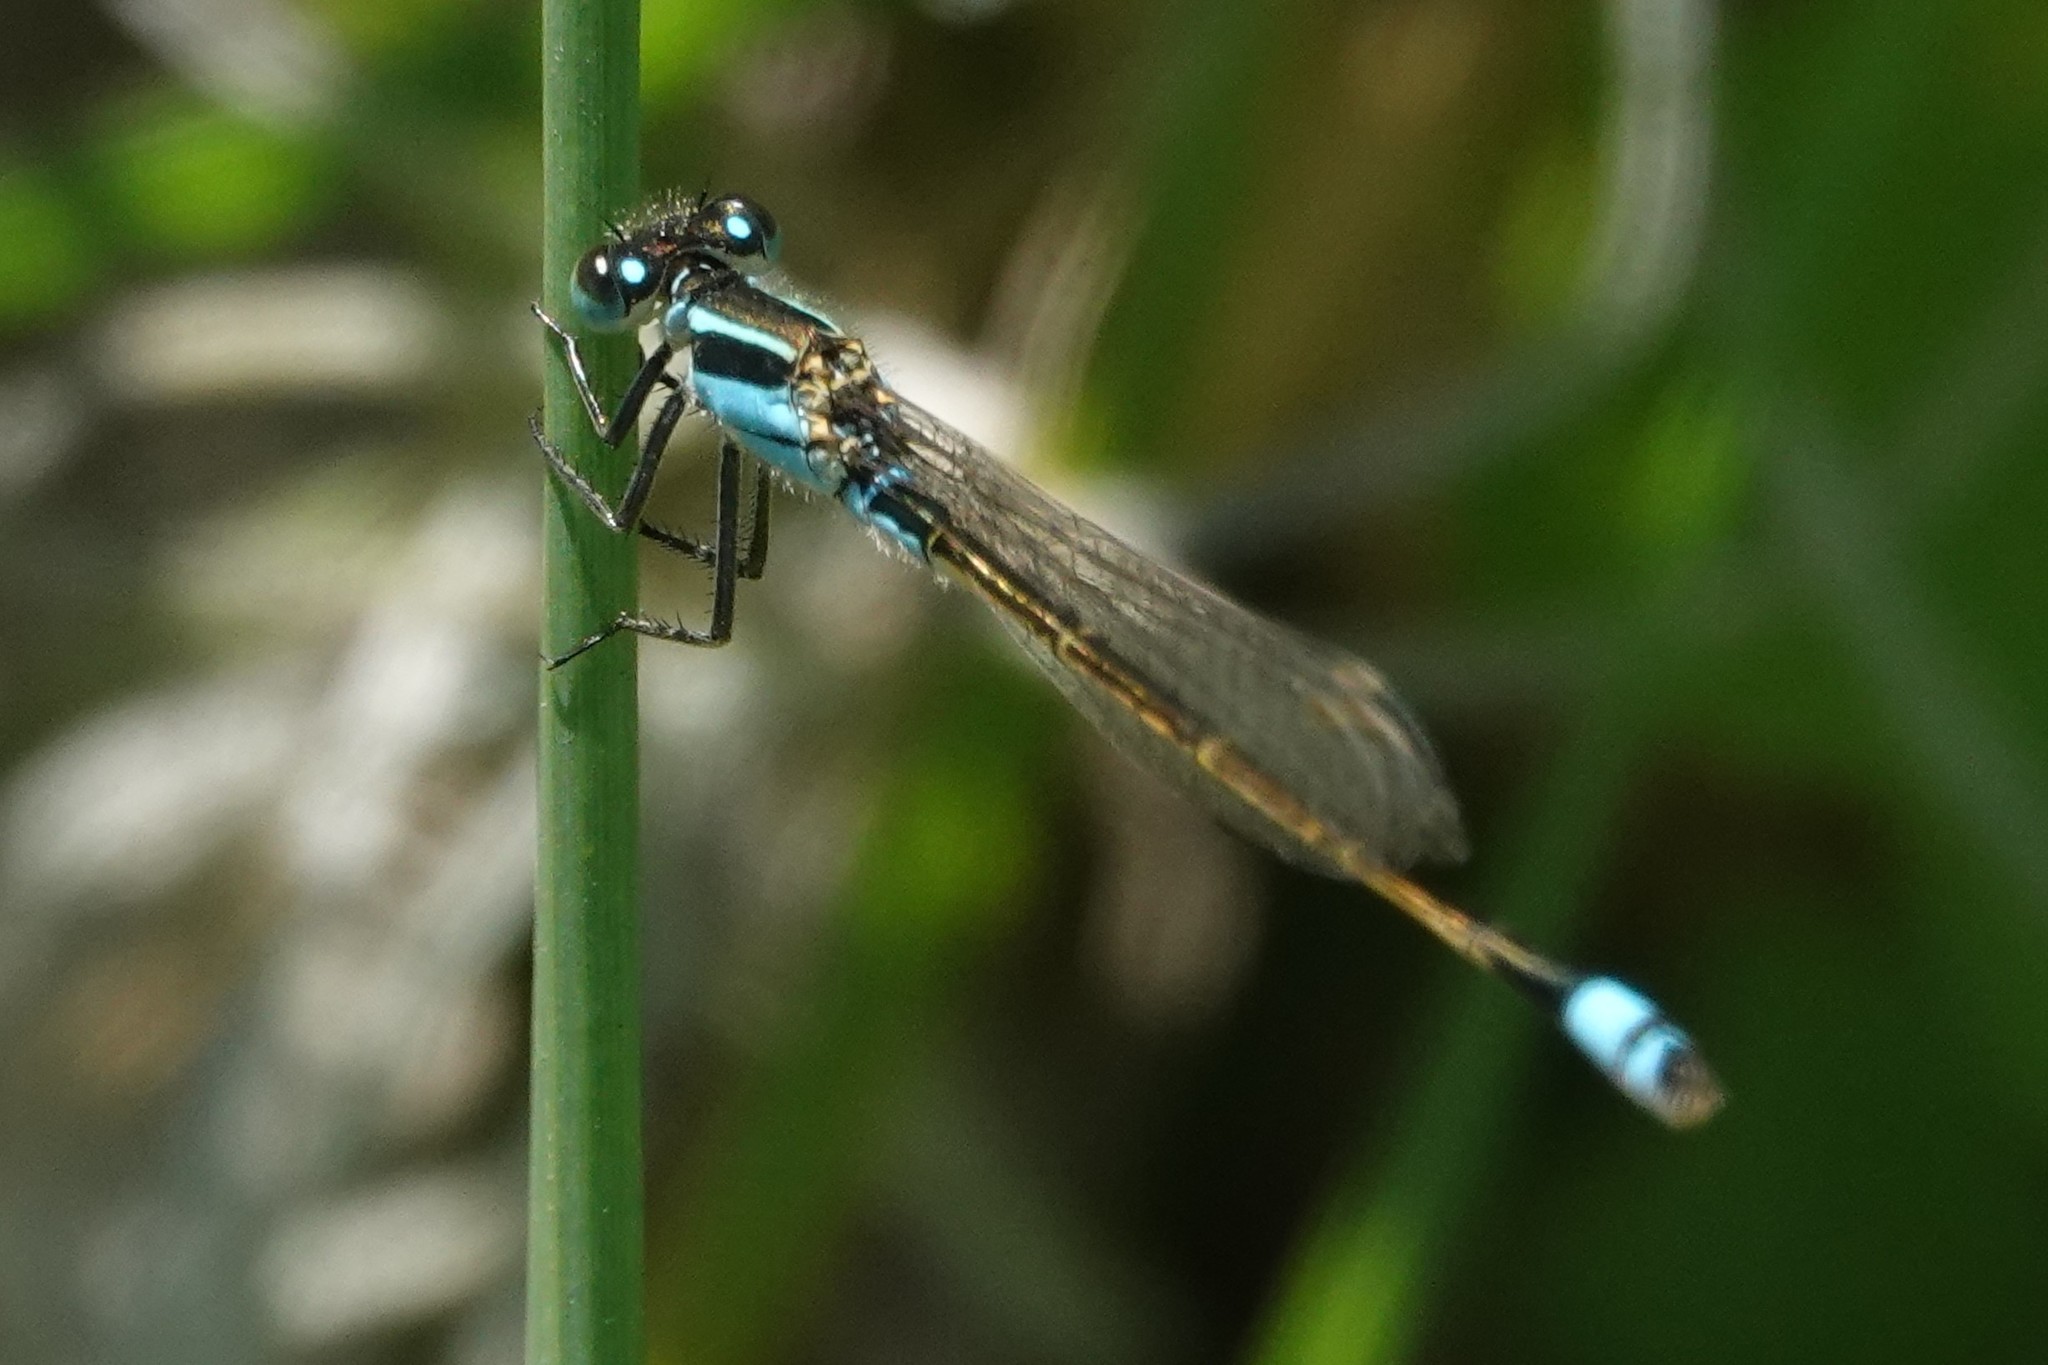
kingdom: Animalia
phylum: Arthropoda
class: Insecta
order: Odonata
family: Coenagrionidae
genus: Ischnura
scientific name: Ischnura ramburii
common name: Rambur's forktail
